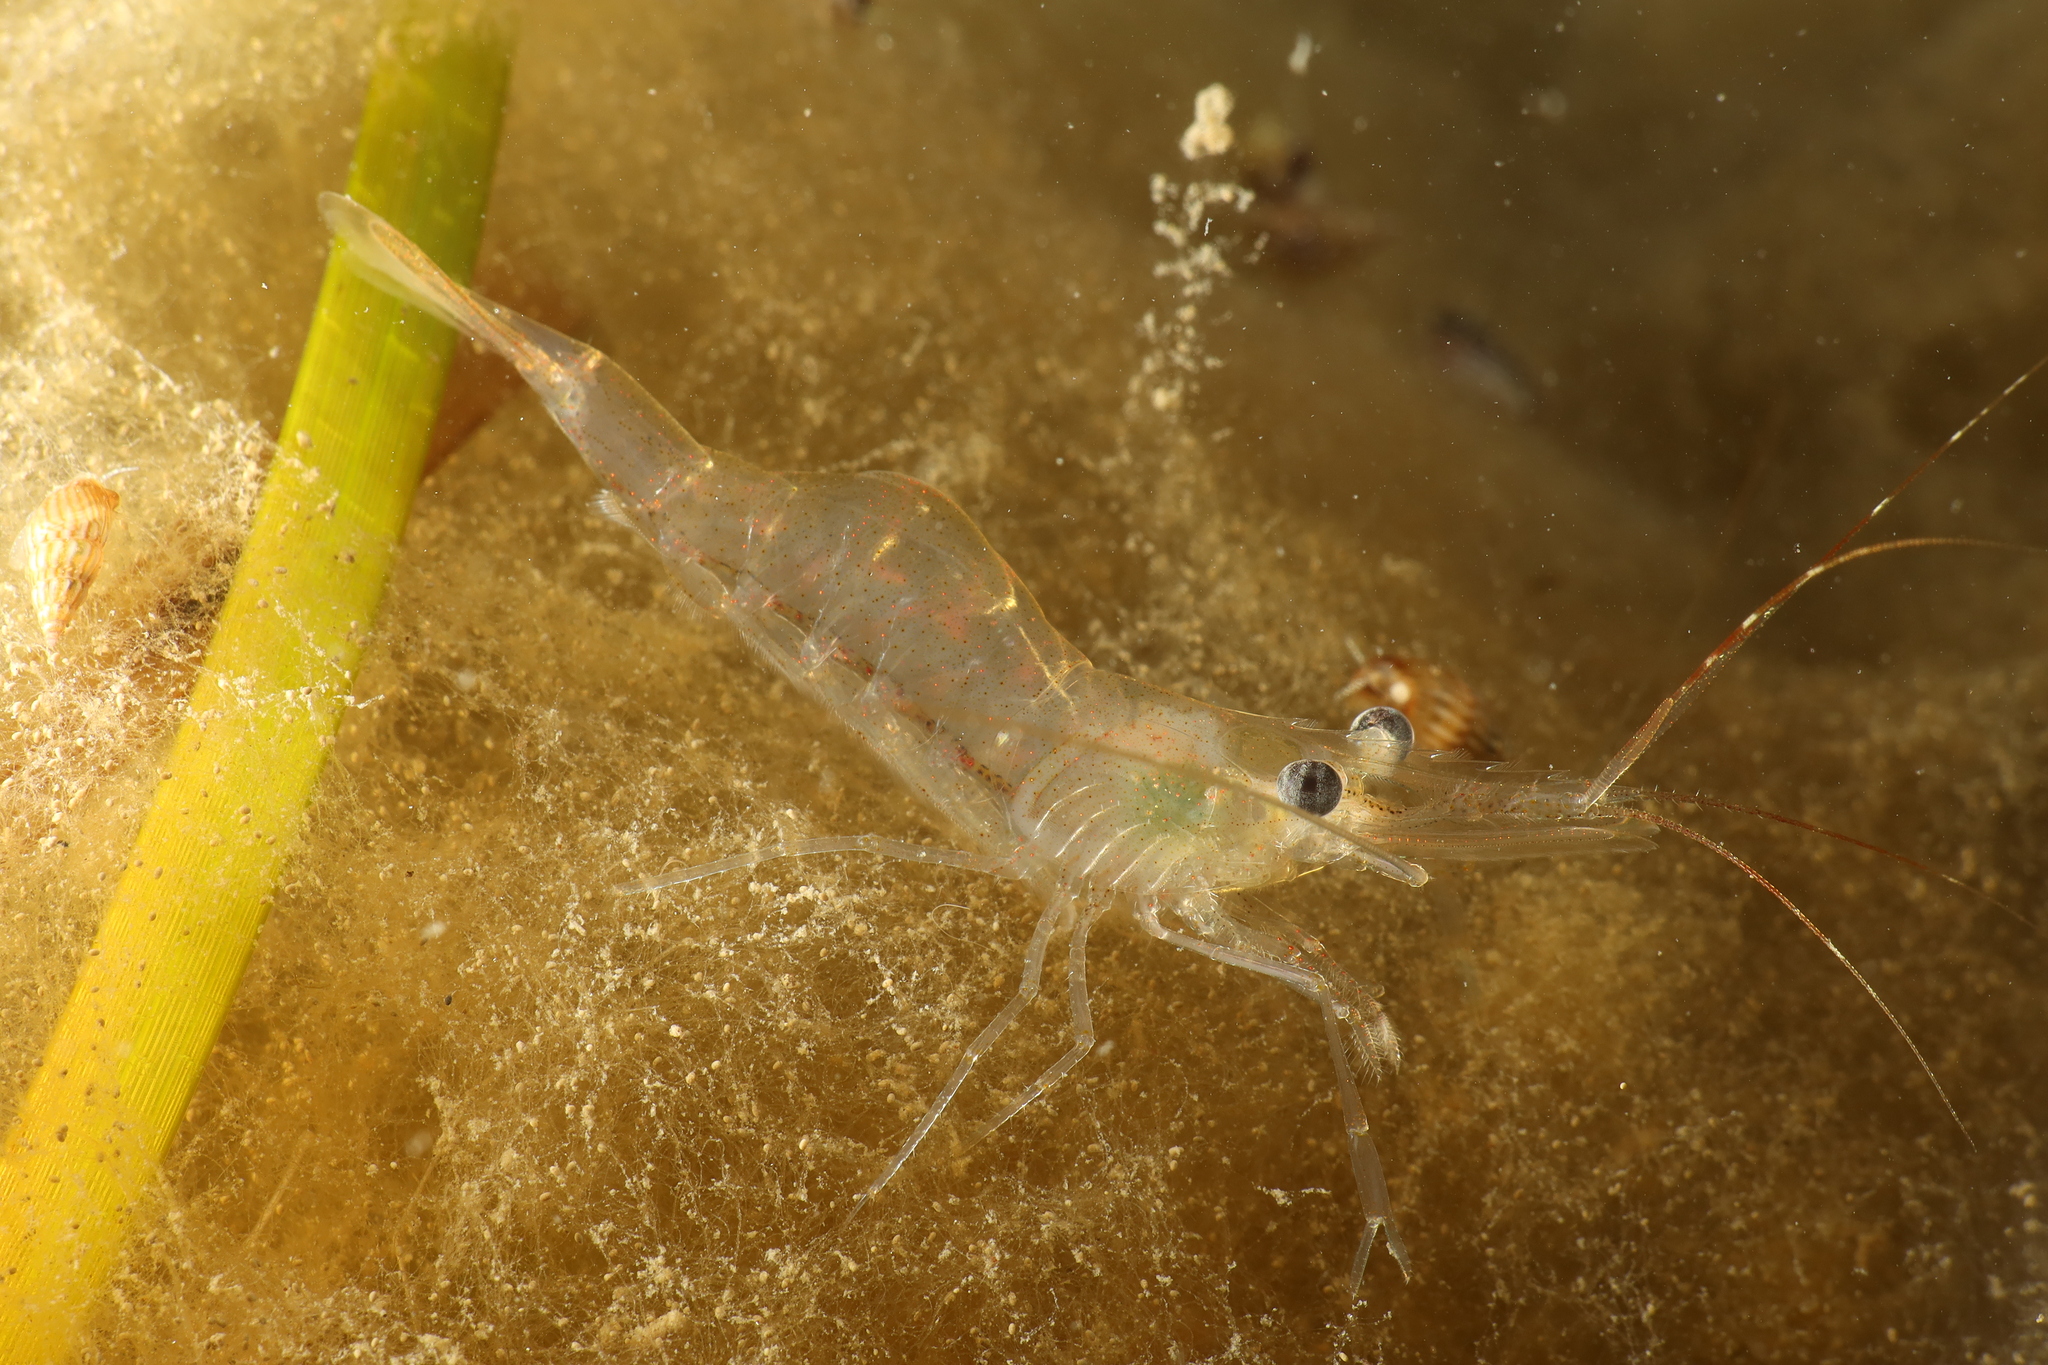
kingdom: Animalia
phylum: Arthropoda
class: Malacostraca
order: Decapoda
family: Palaemonidae
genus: Palaemon
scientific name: Palaemon adspersus
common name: Baltic prawn
